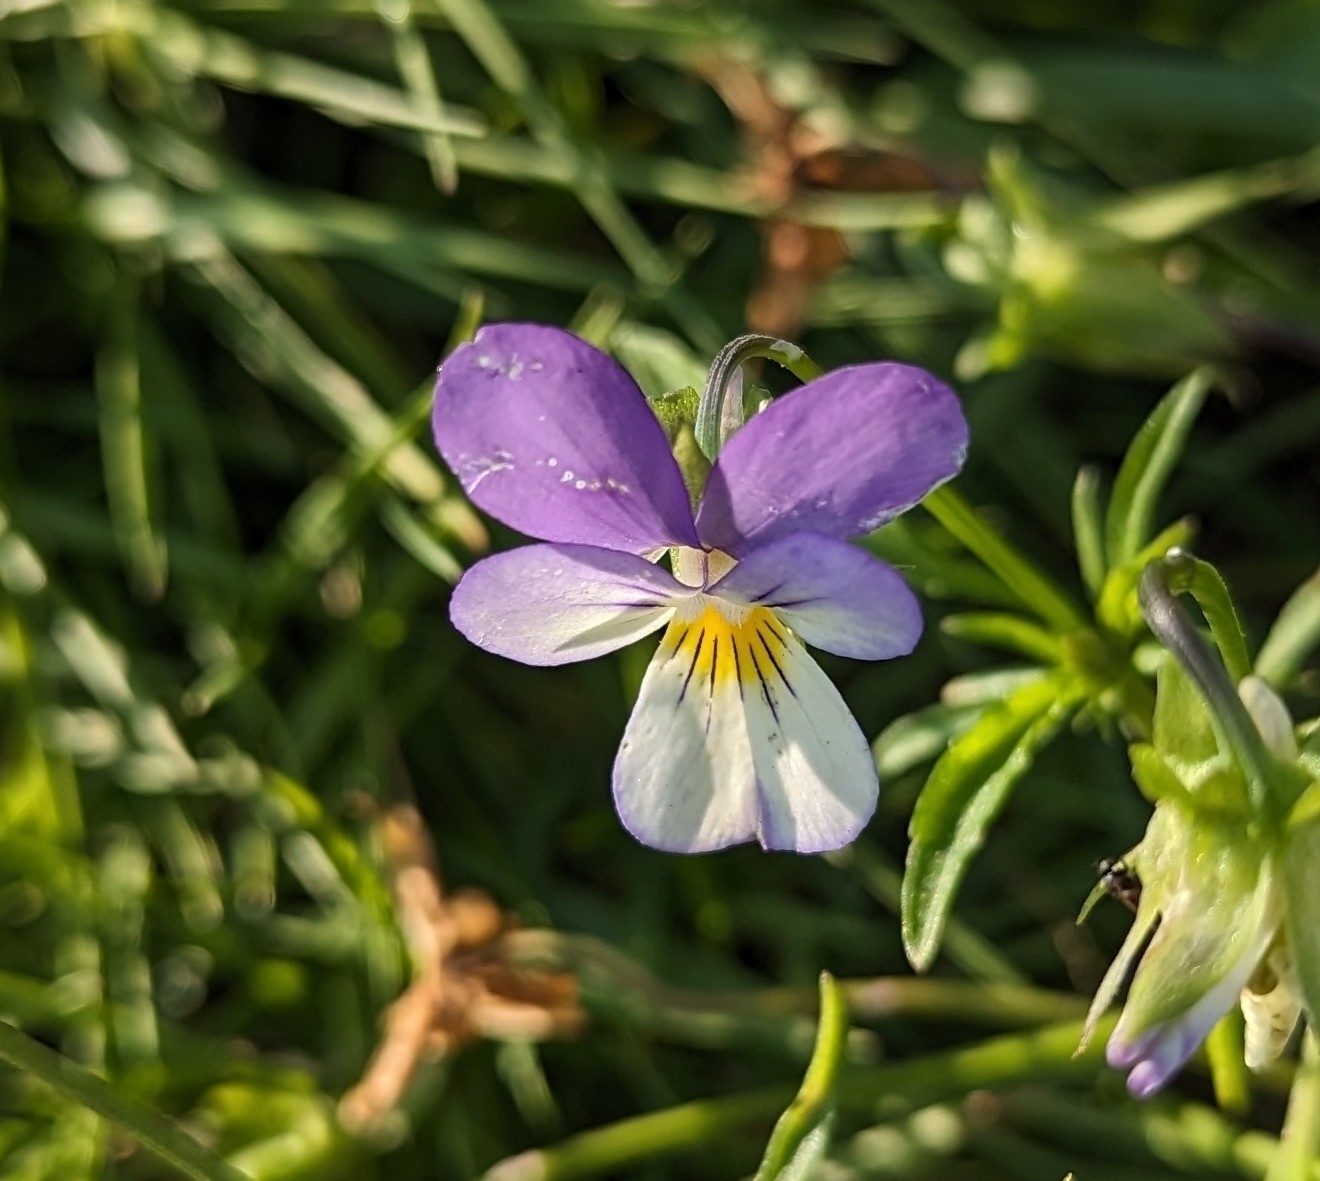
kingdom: Plantae
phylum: Tracheophyta
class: Magnoliopsida
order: Malpighiales
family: Violaceae
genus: Viola
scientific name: Viola contempta
